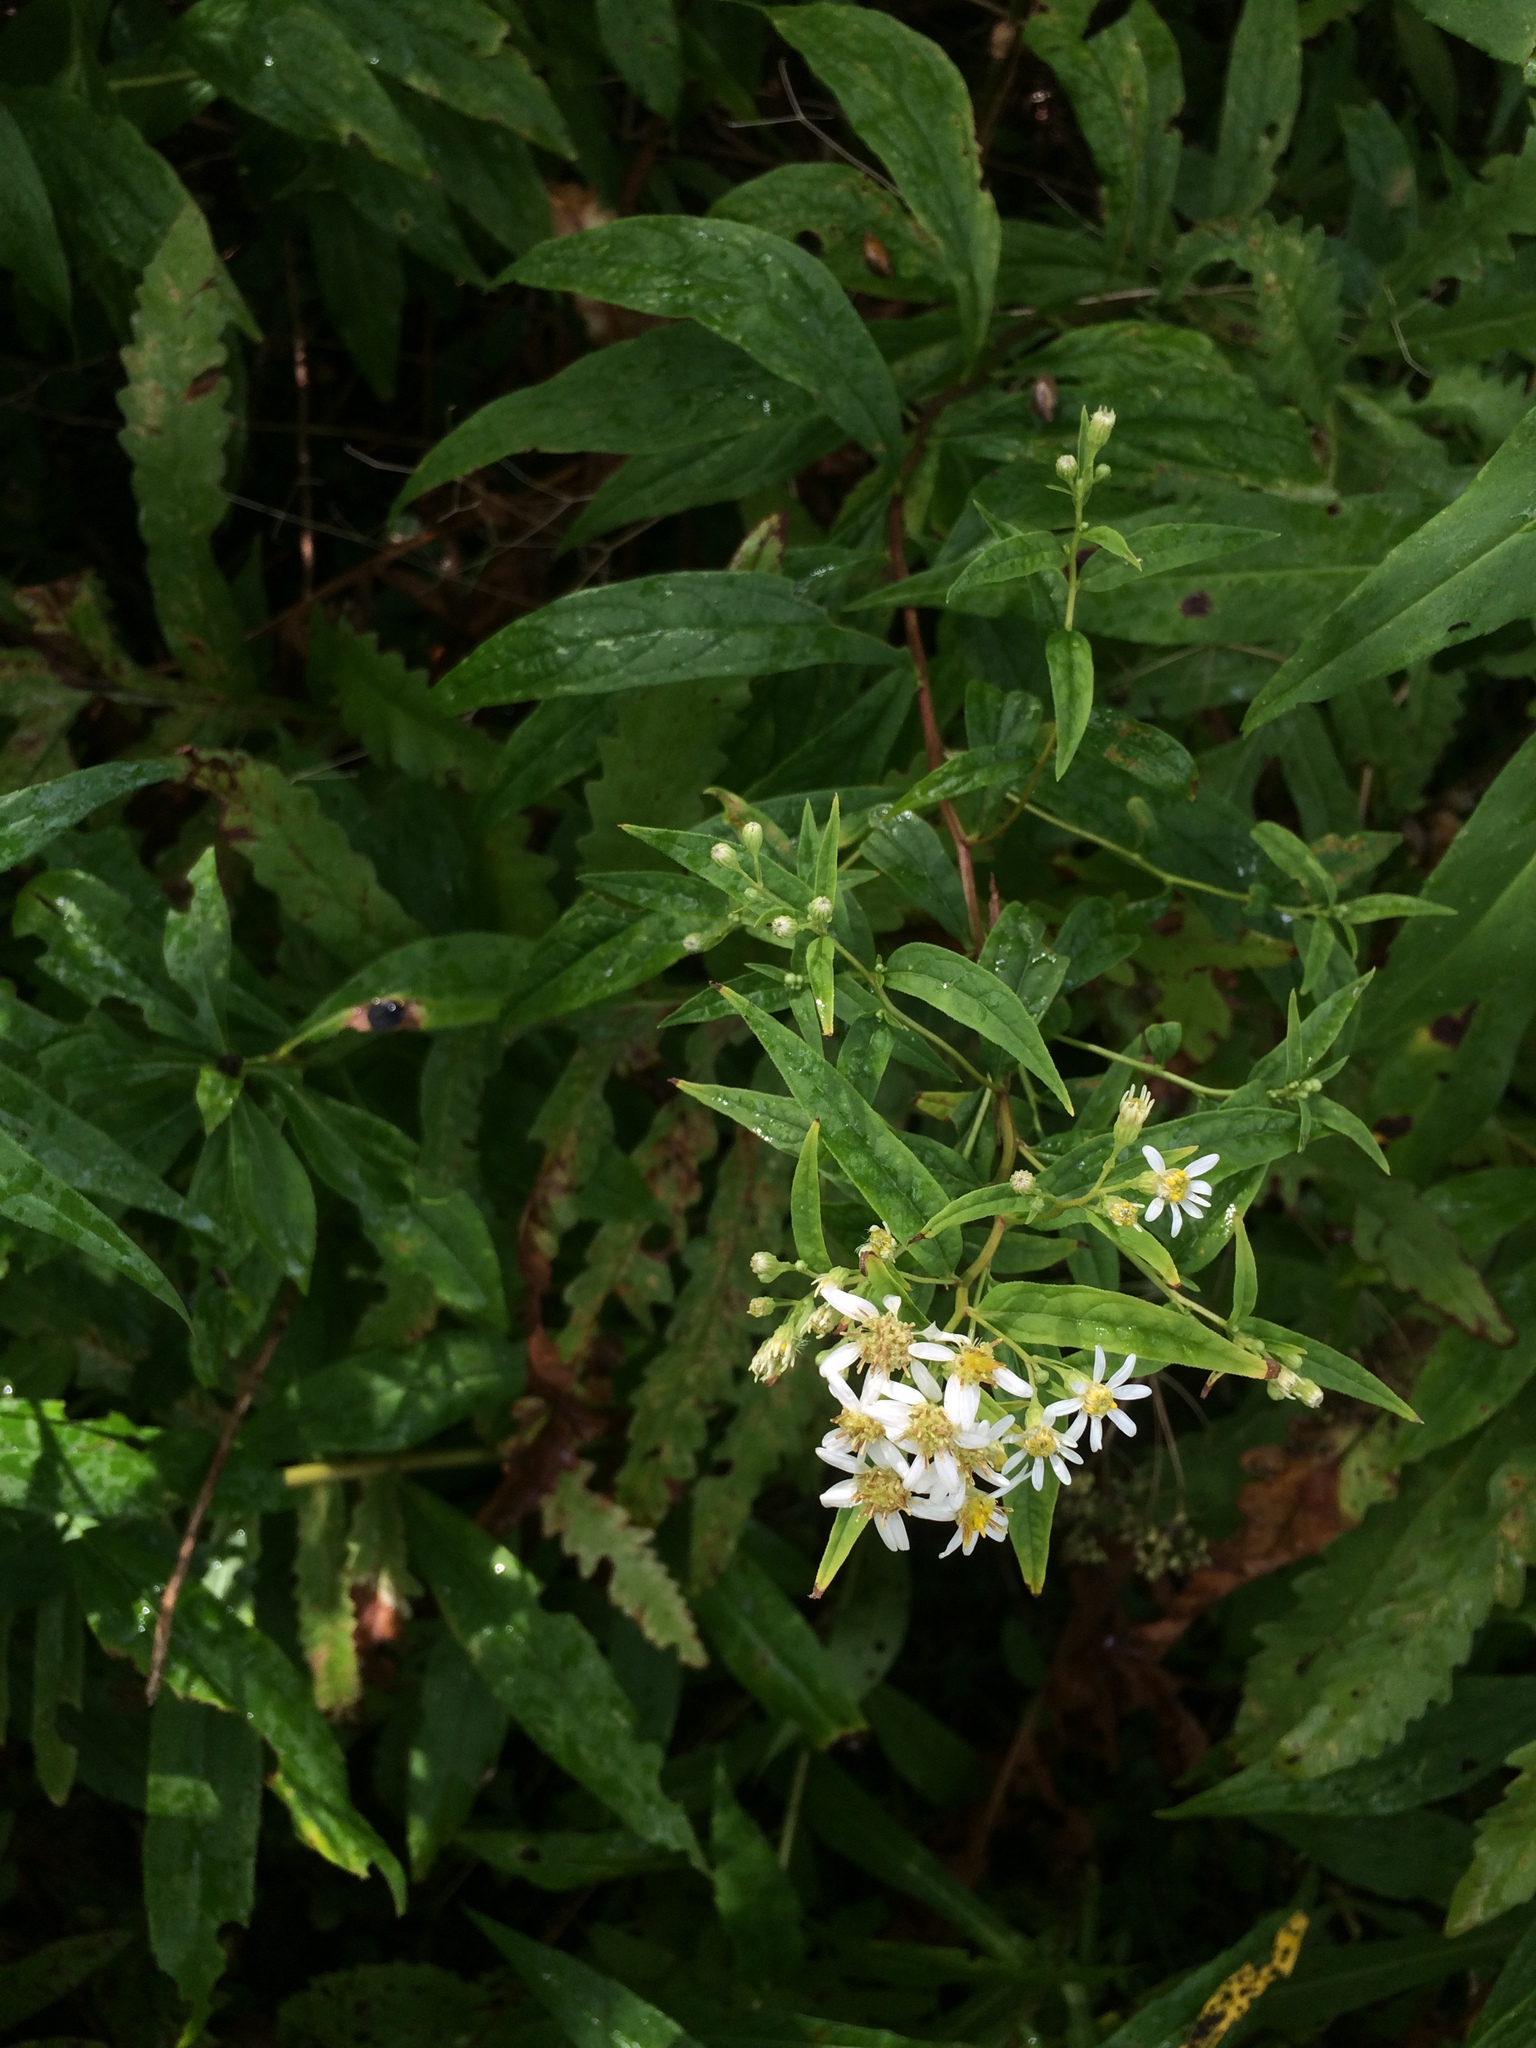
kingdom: Plantae
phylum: Tracheophyta
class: Magnoliopsida
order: Asterales
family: Asteraceae
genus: Doellingeria
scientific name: Doellingeria umbellata
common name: Flat-top white aster
